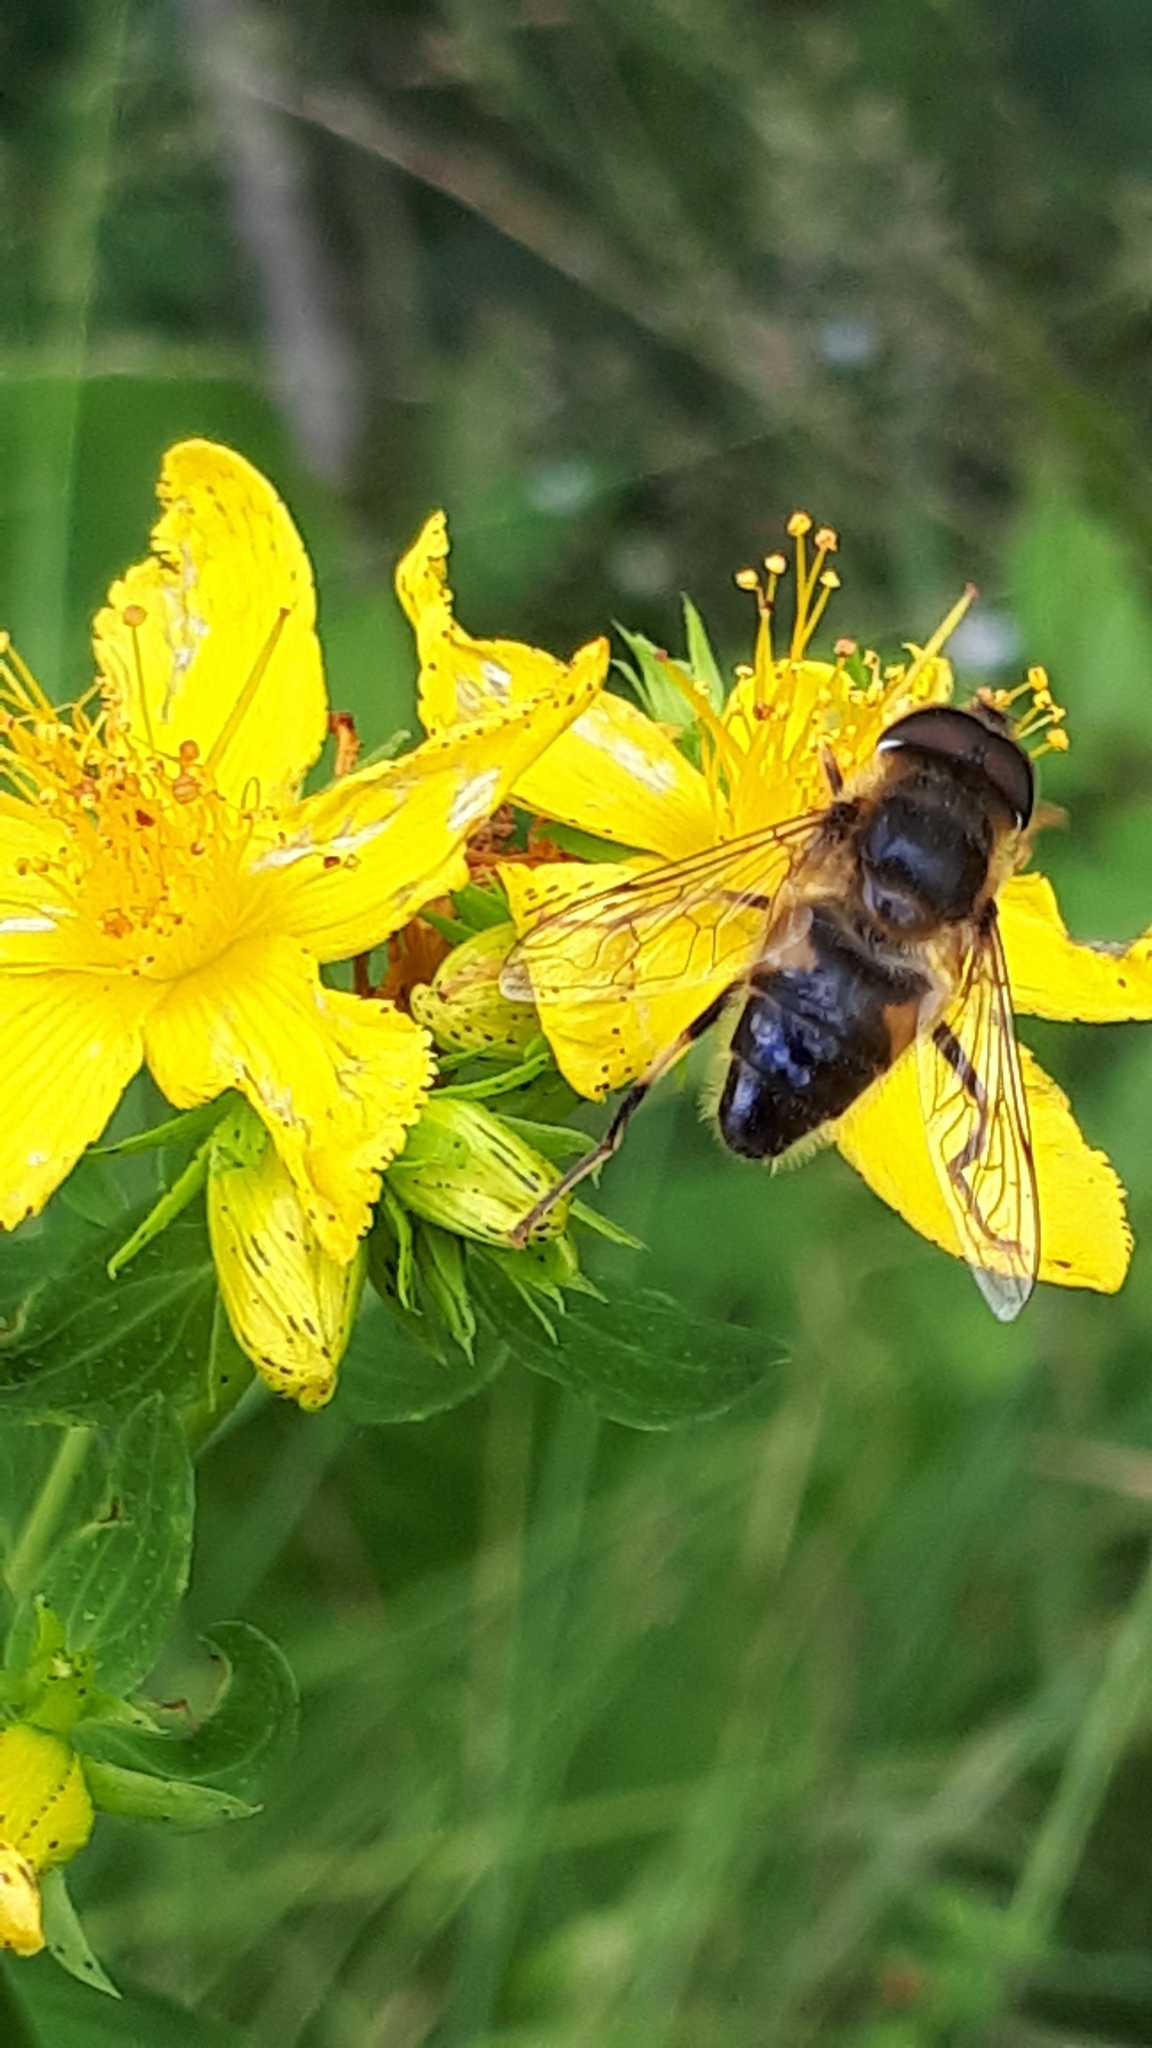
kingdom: Animalia
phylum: Arthropoda
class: Insecta
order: Diptera
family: Syrphidae
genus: Eristalis
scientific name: Eristalis pertinax
